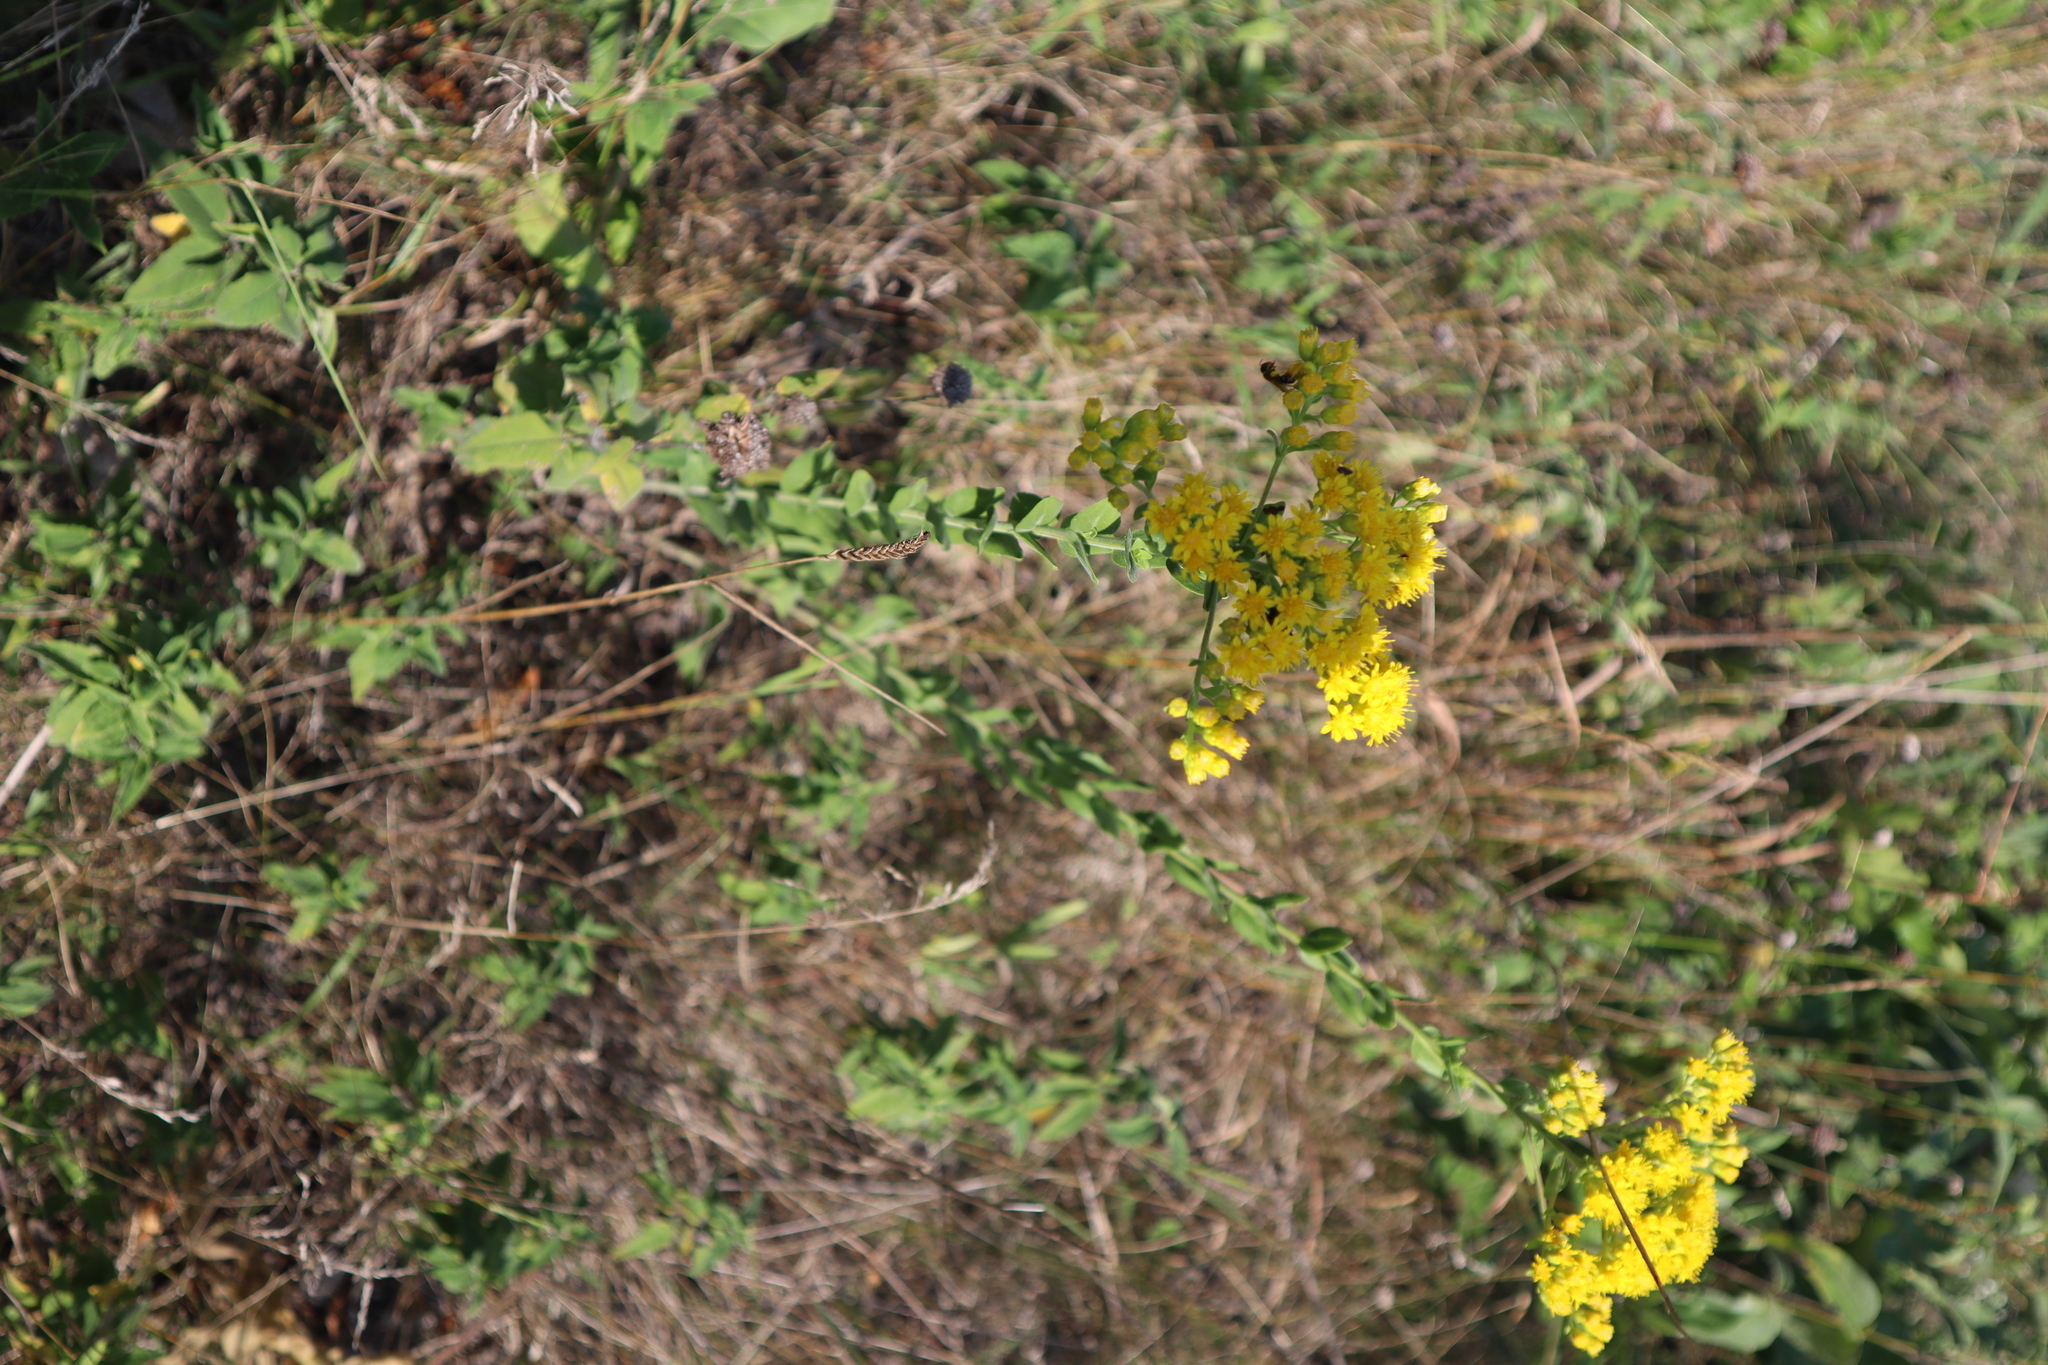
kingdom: Plantae
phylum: Tracheophyta
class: Magnoliopsida
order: Asterales
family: Asteraceae
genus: Solidago
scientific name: Solidago rigida
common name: Rigid goldenrod
